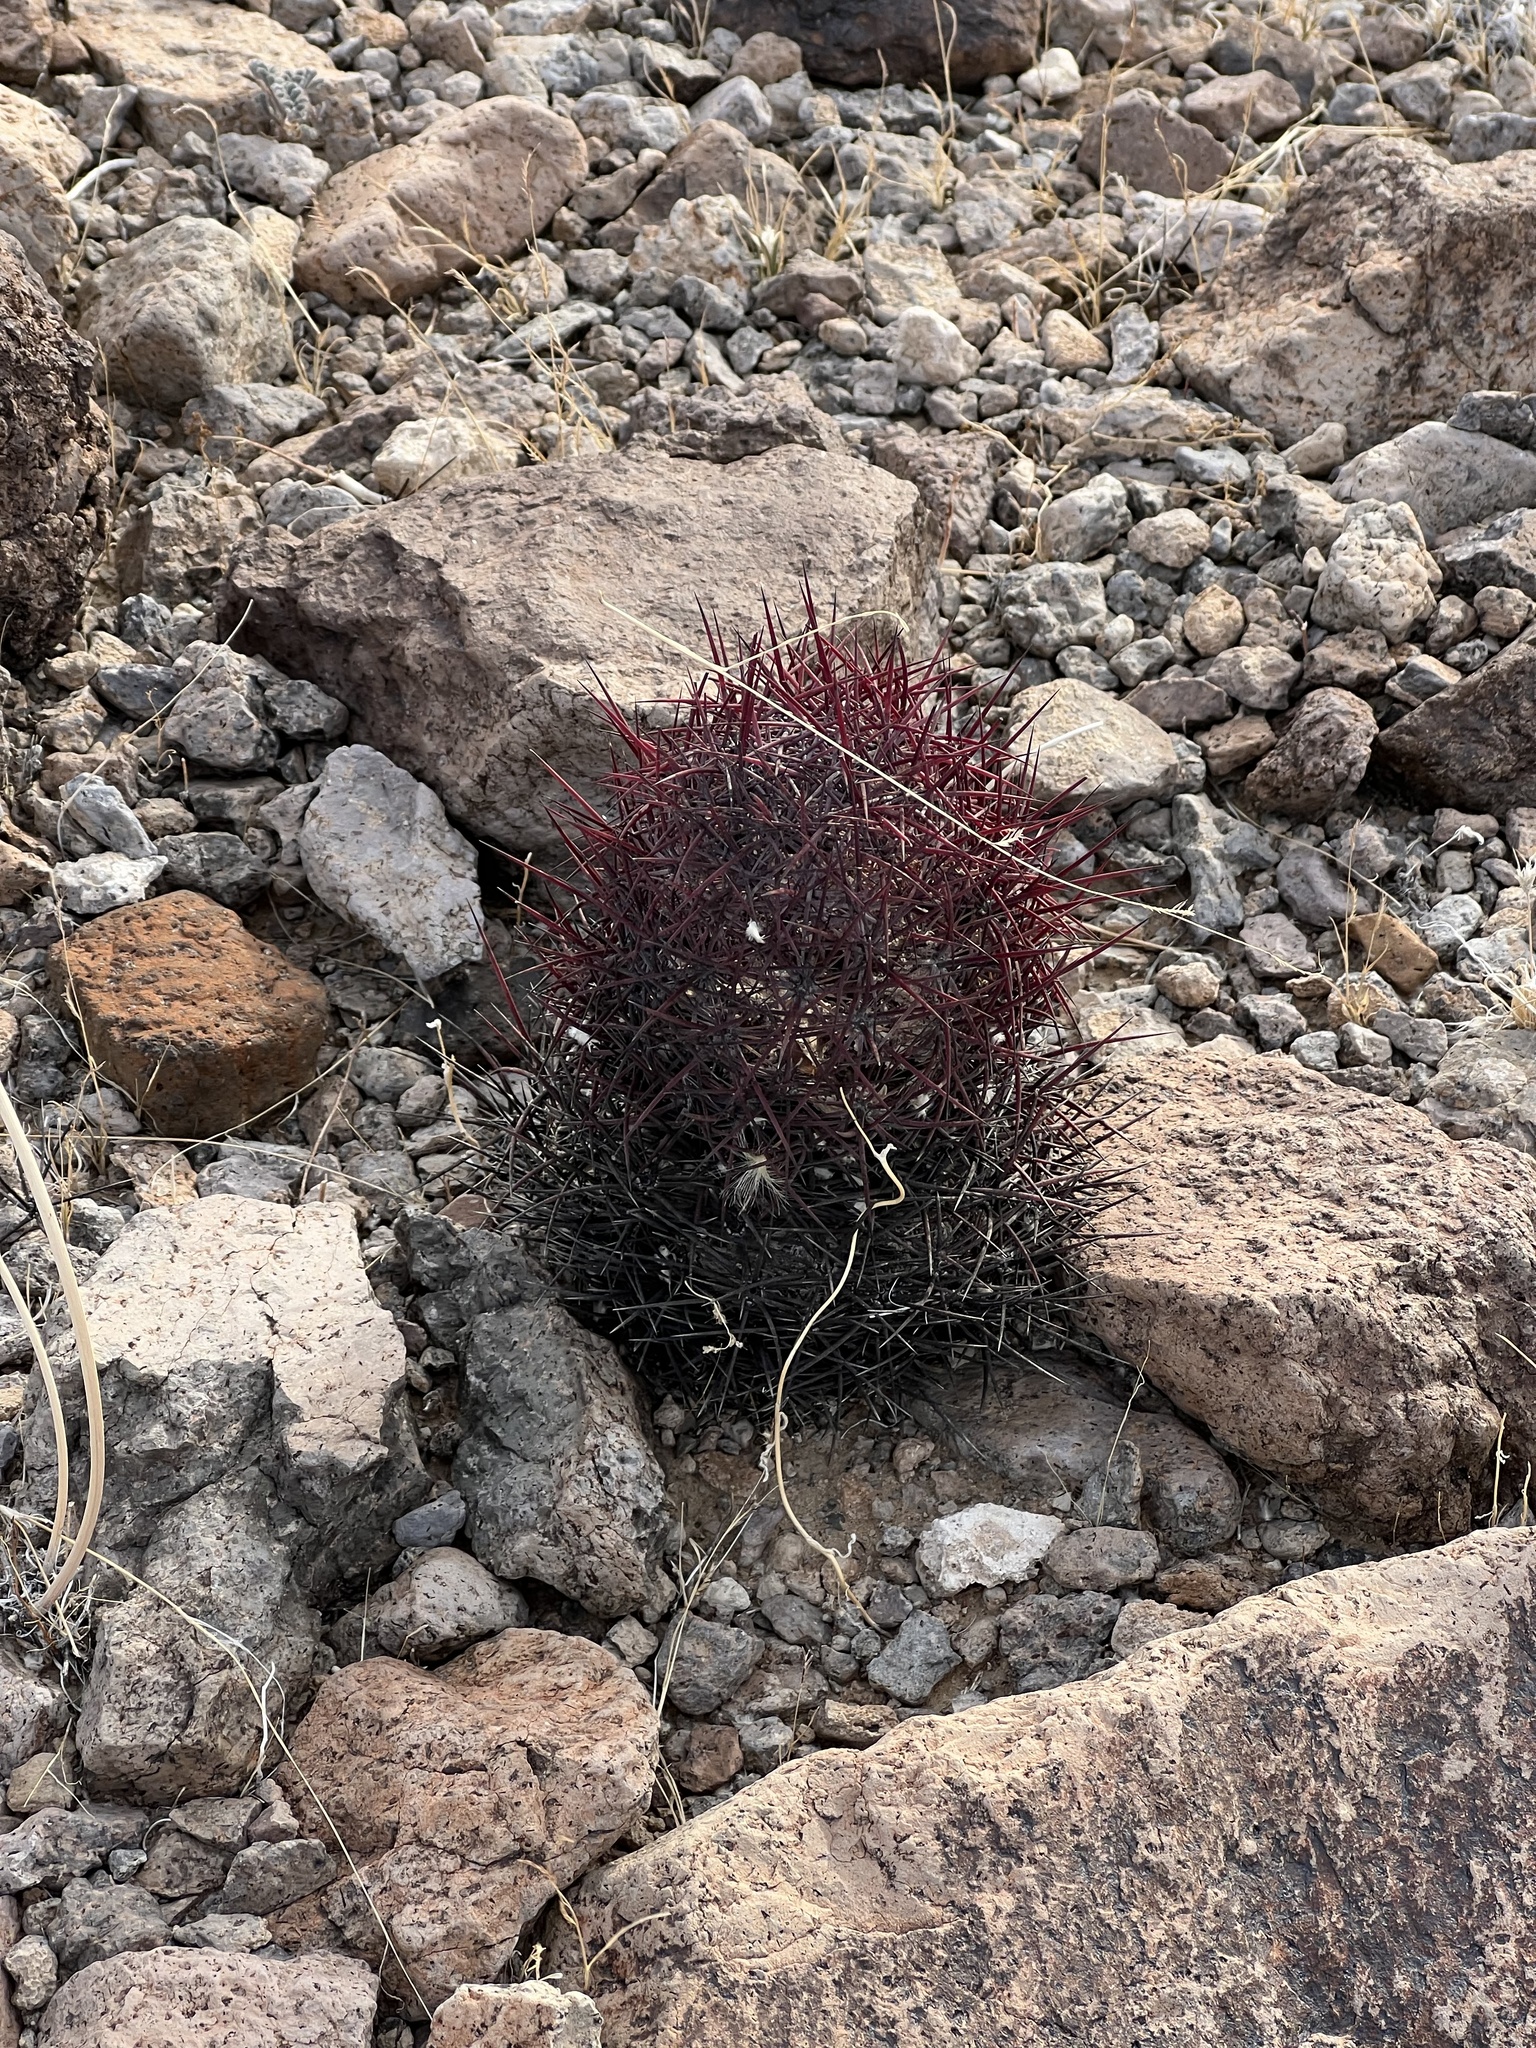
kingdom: Plantae
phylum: Tracheophyta
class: Magnoliopsida
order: Caryophyllales
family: Cactaceae
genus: Sclerocactus
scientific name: Sclerocactus johnsonii
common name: Eight-spine fishhook cactus
